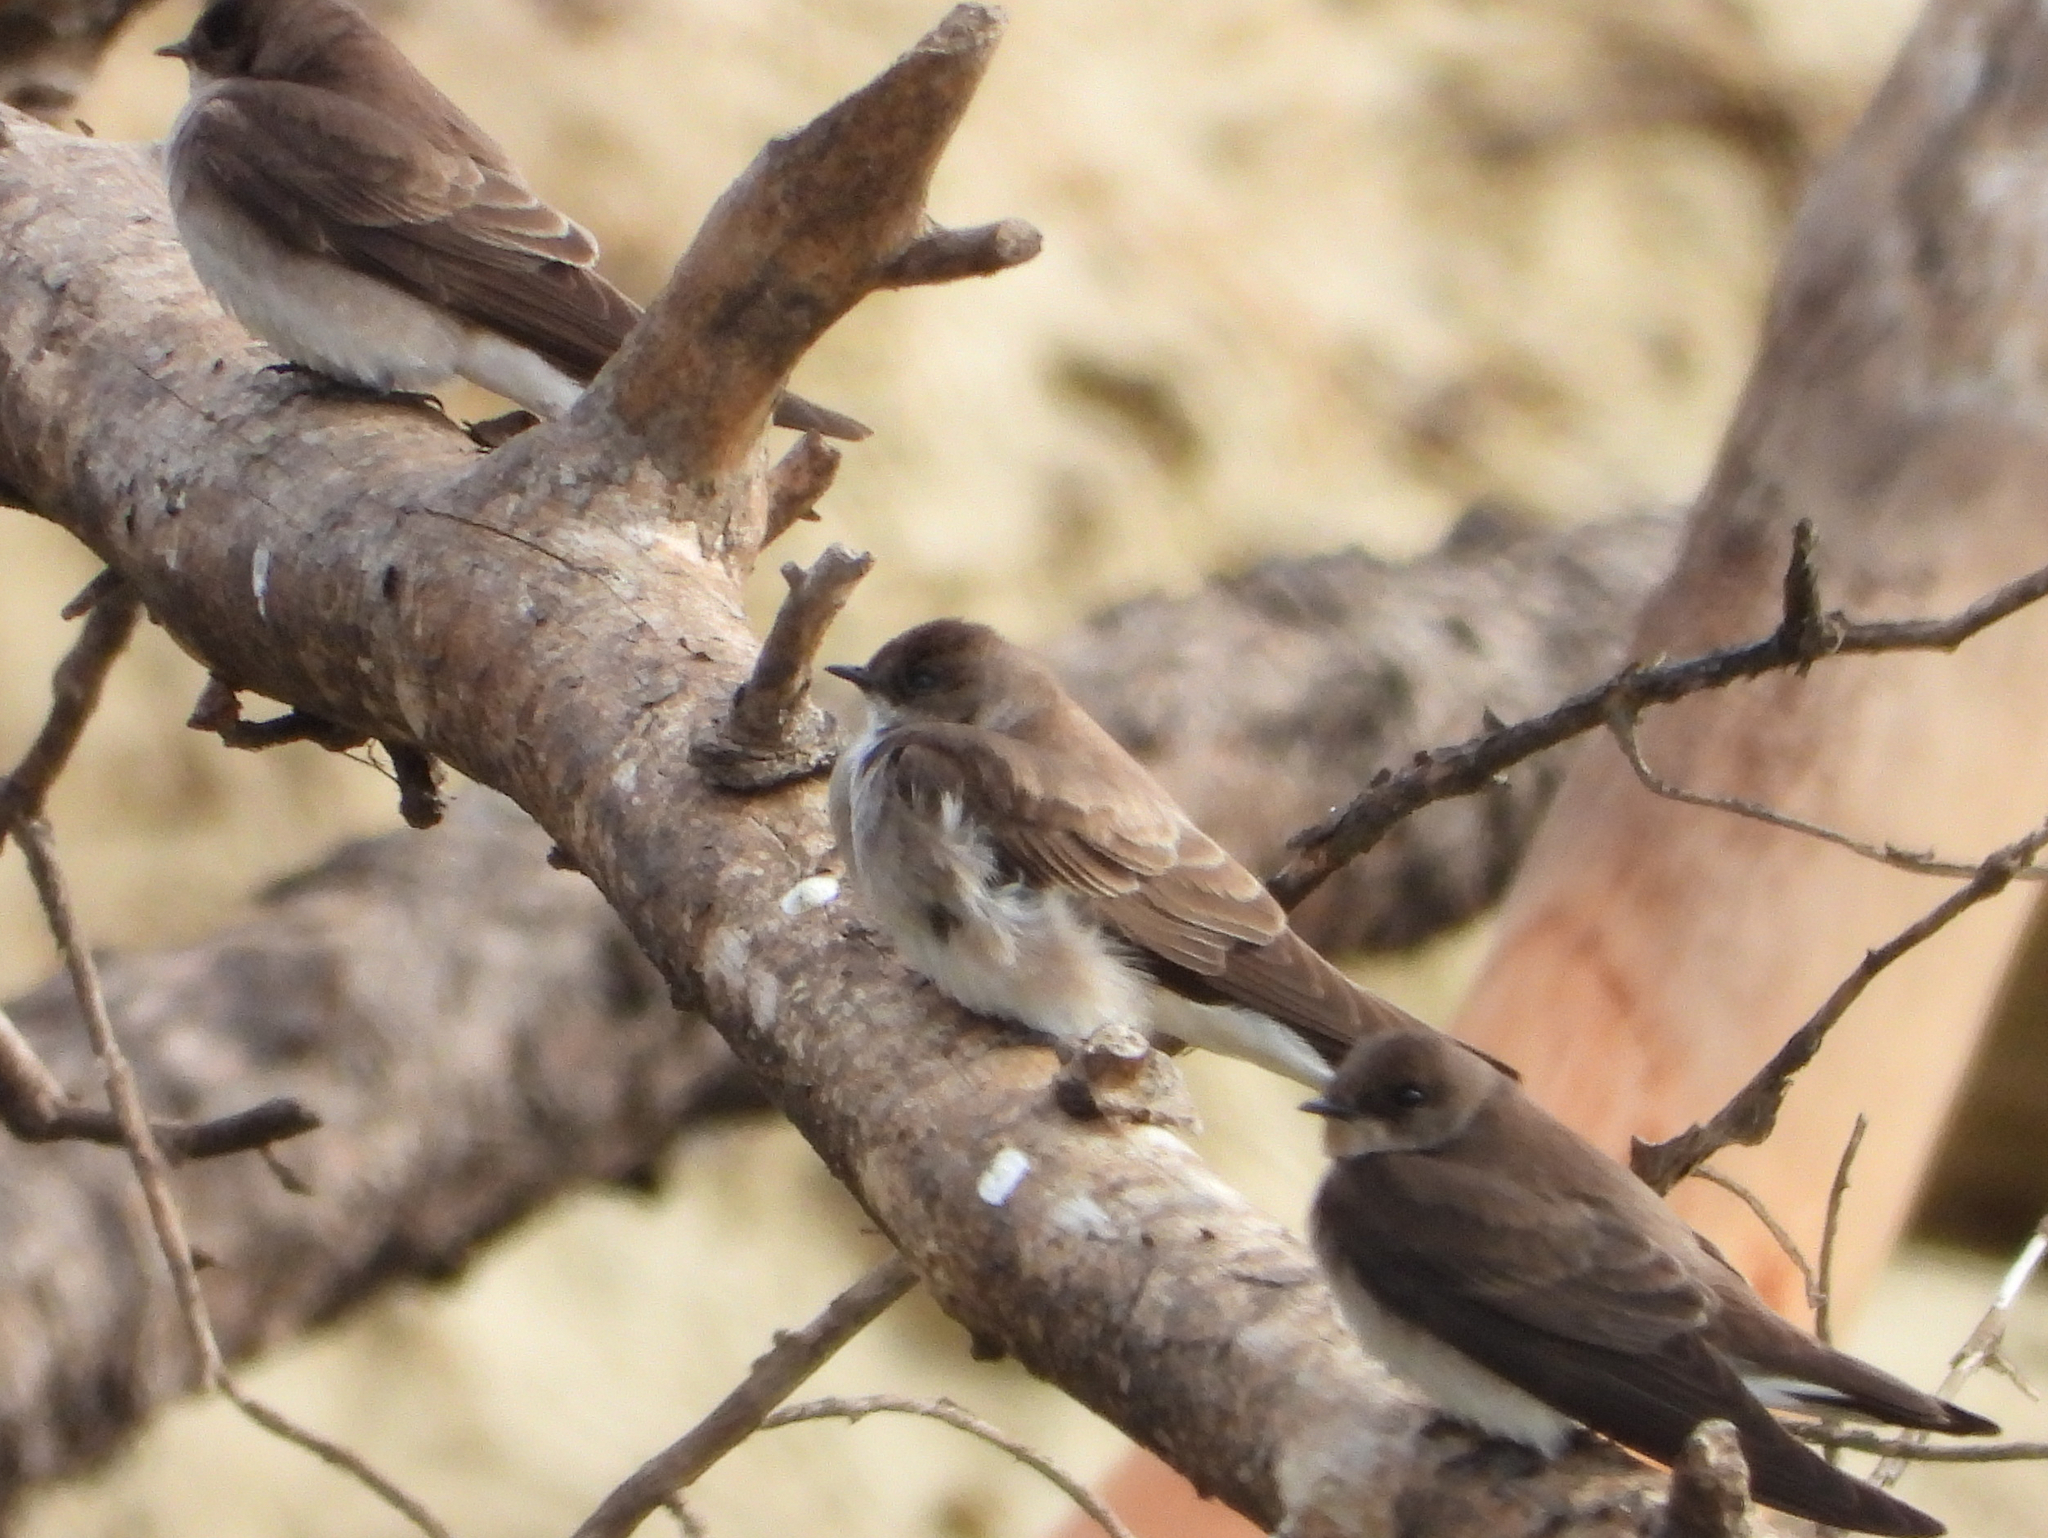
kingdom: Animalia
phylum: Chordata
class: Aves
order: Passeriformes
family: Hirundinidae
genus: Stelgidopteryx
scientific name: Stelgidopteryx serripennis
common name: Northern rough-winged swallow
